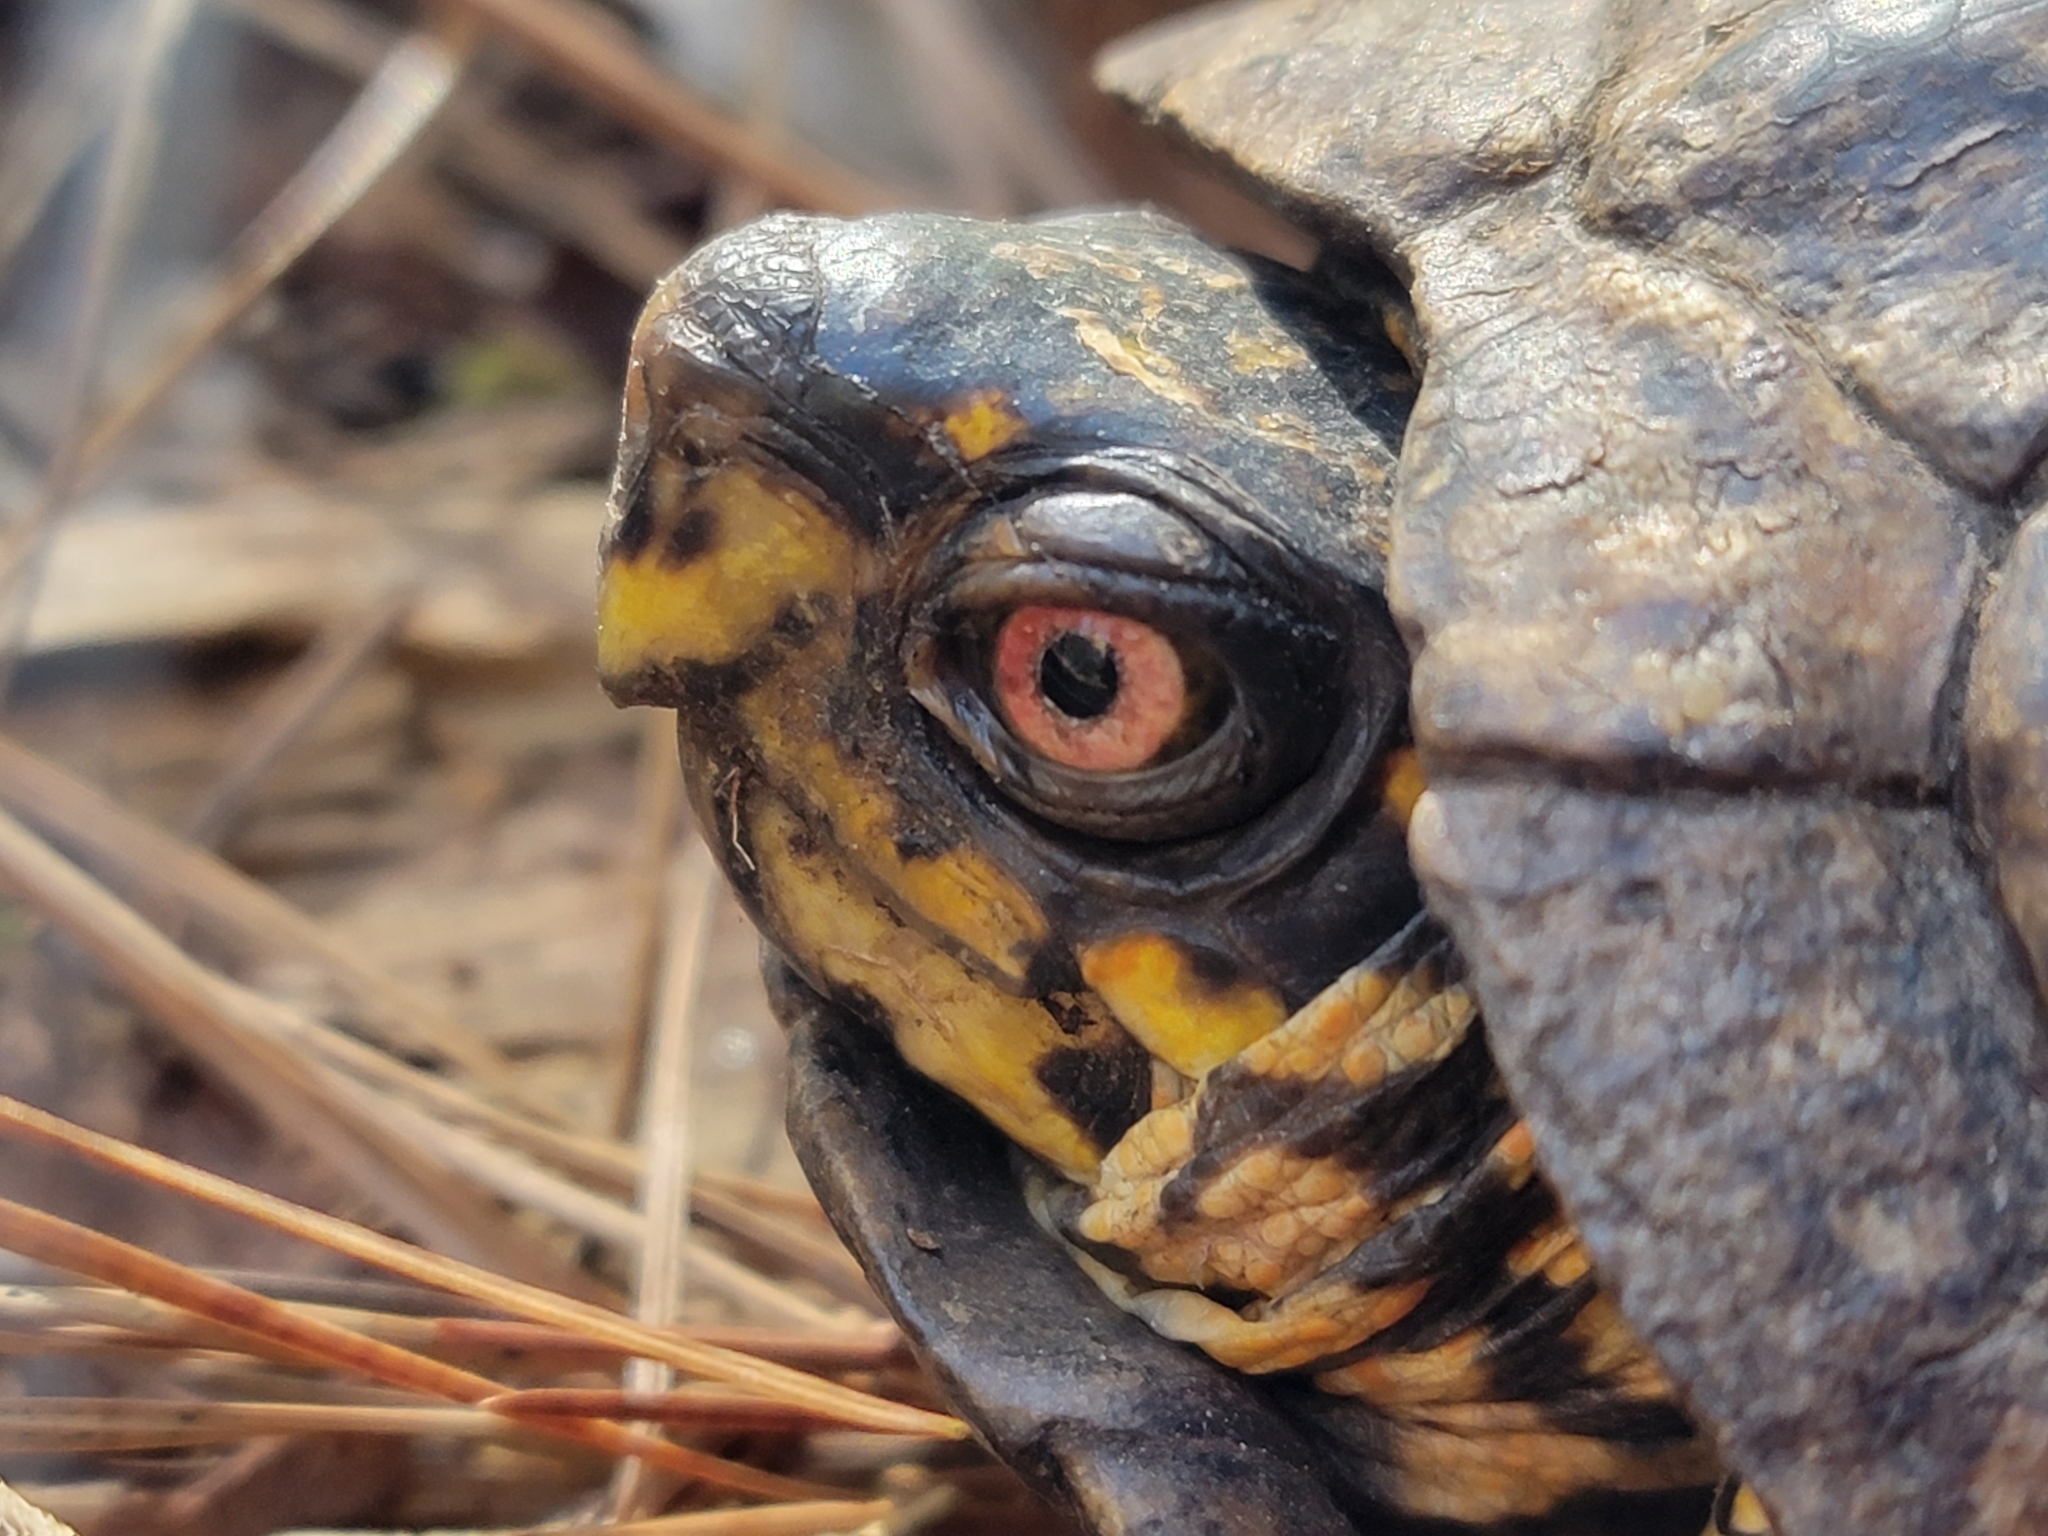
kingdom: Animalia
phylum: Chordata
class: Testudines
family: Emydidae
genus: Terrapene
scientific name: Terrapene carolina
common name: Common box turtle
